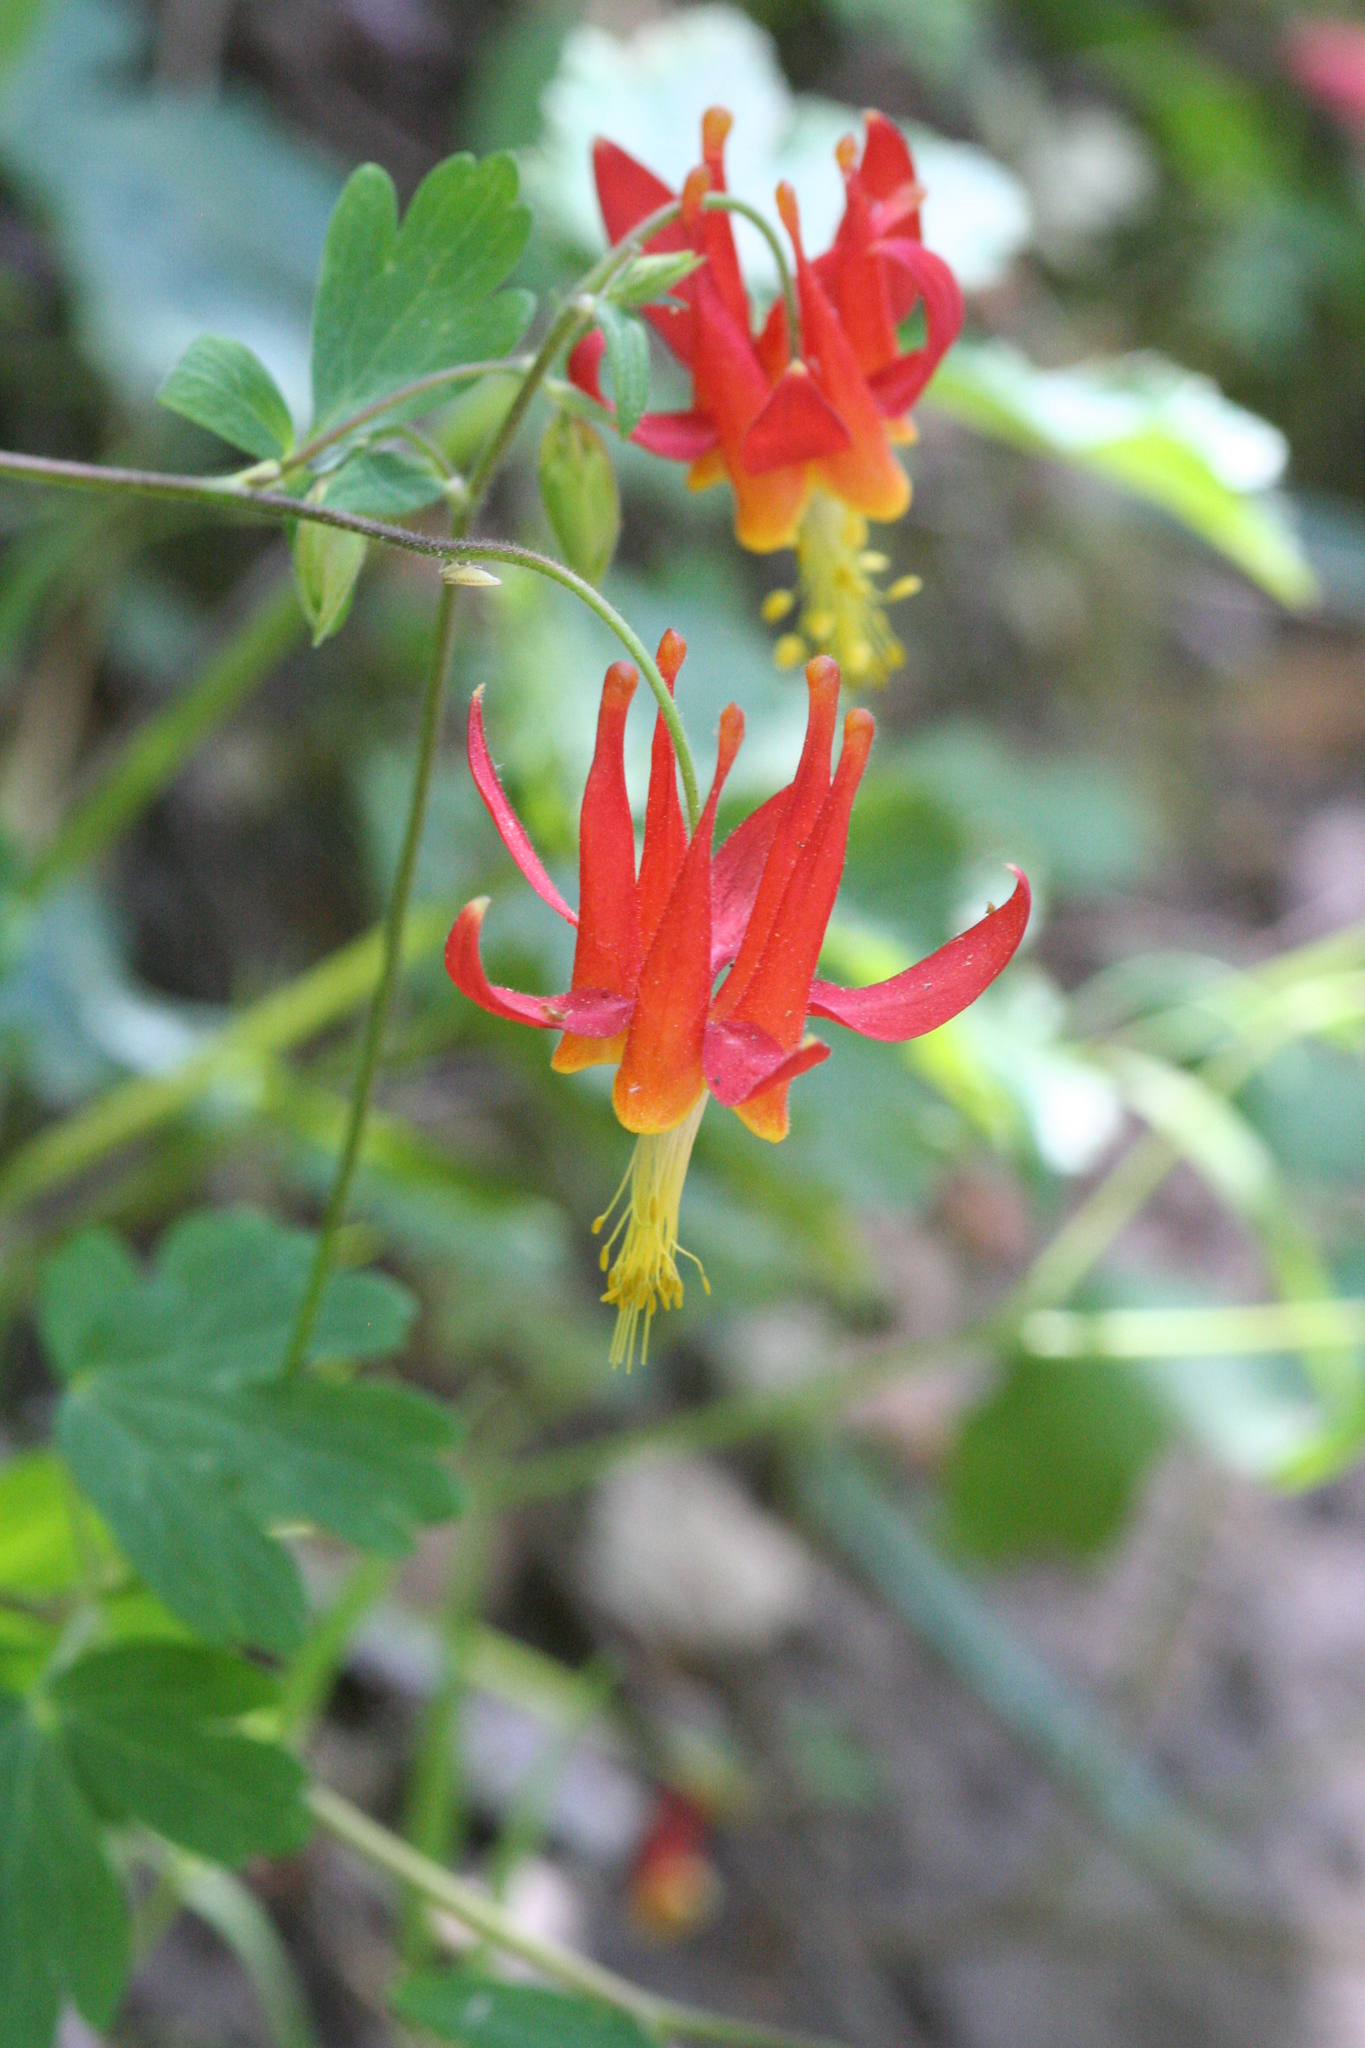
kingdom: Plantae
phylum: Tracheophyta
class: Magnoliopsida
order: Ranunculales
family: Ranunculaceae
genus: Aquilegia
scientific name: Aquilegia formosa
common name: Sitka columbine
